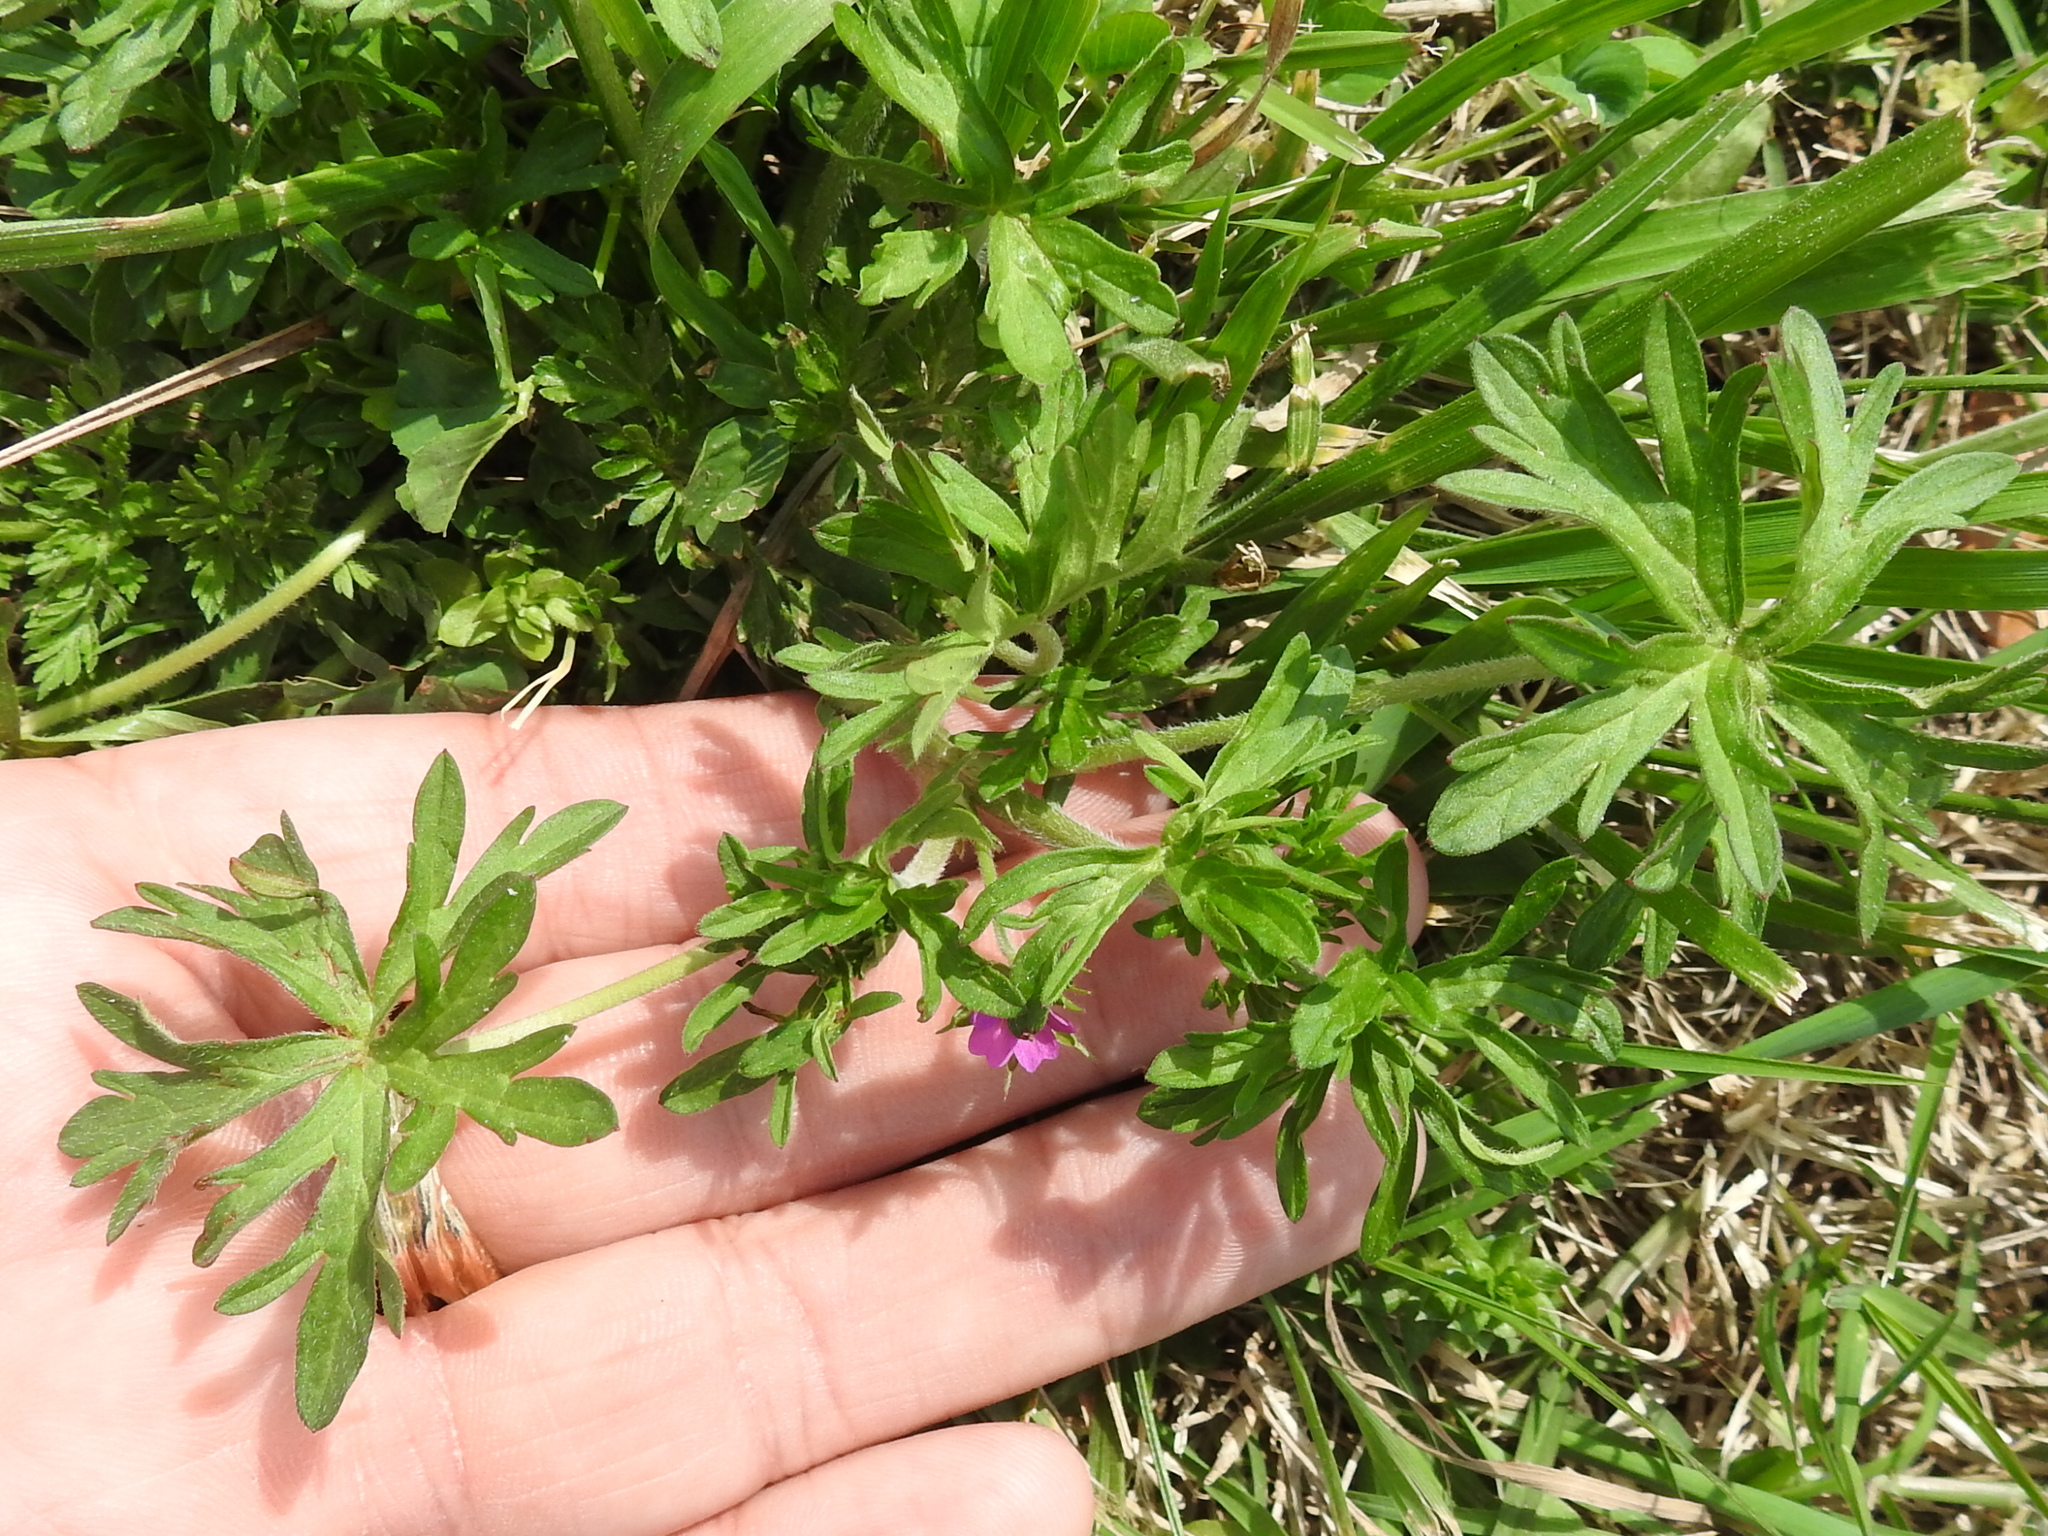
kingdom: Plantae
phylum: Tracheophyta
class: Magnoliopsida
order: Geraniales
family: Geraniaceae
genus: Geranium
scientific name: Geranium dissectum
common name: Cut-leaved crane's-bill
